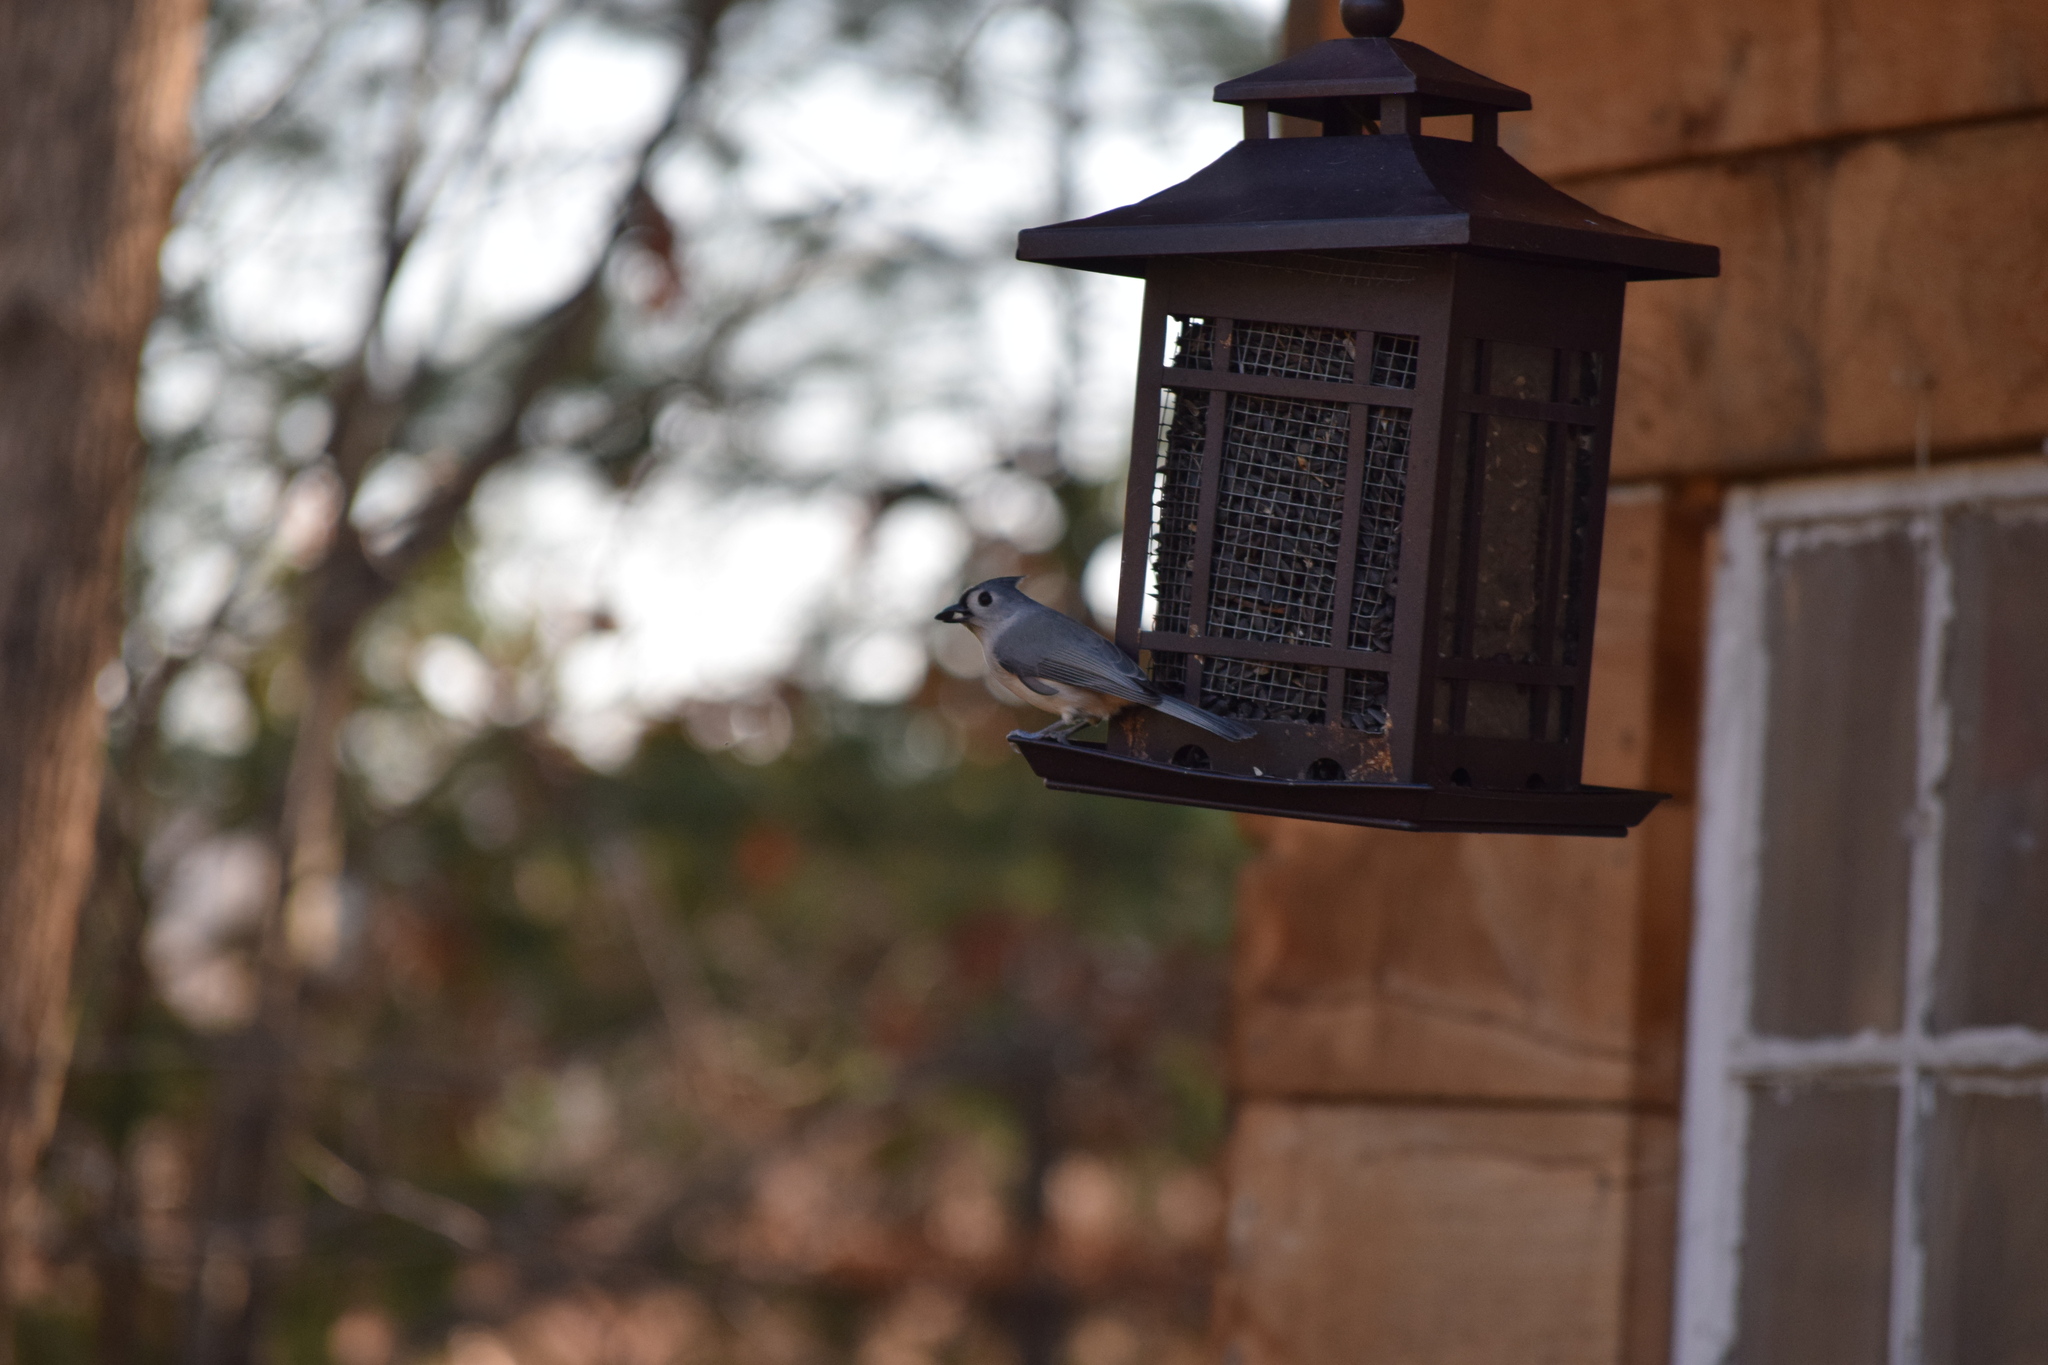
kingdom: Animalia
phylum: Chordata
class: Aves
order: Passeriformes
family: Paridae
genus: Baeolophus
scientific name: Baeolophus bicolor
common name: Tufted titmouse
